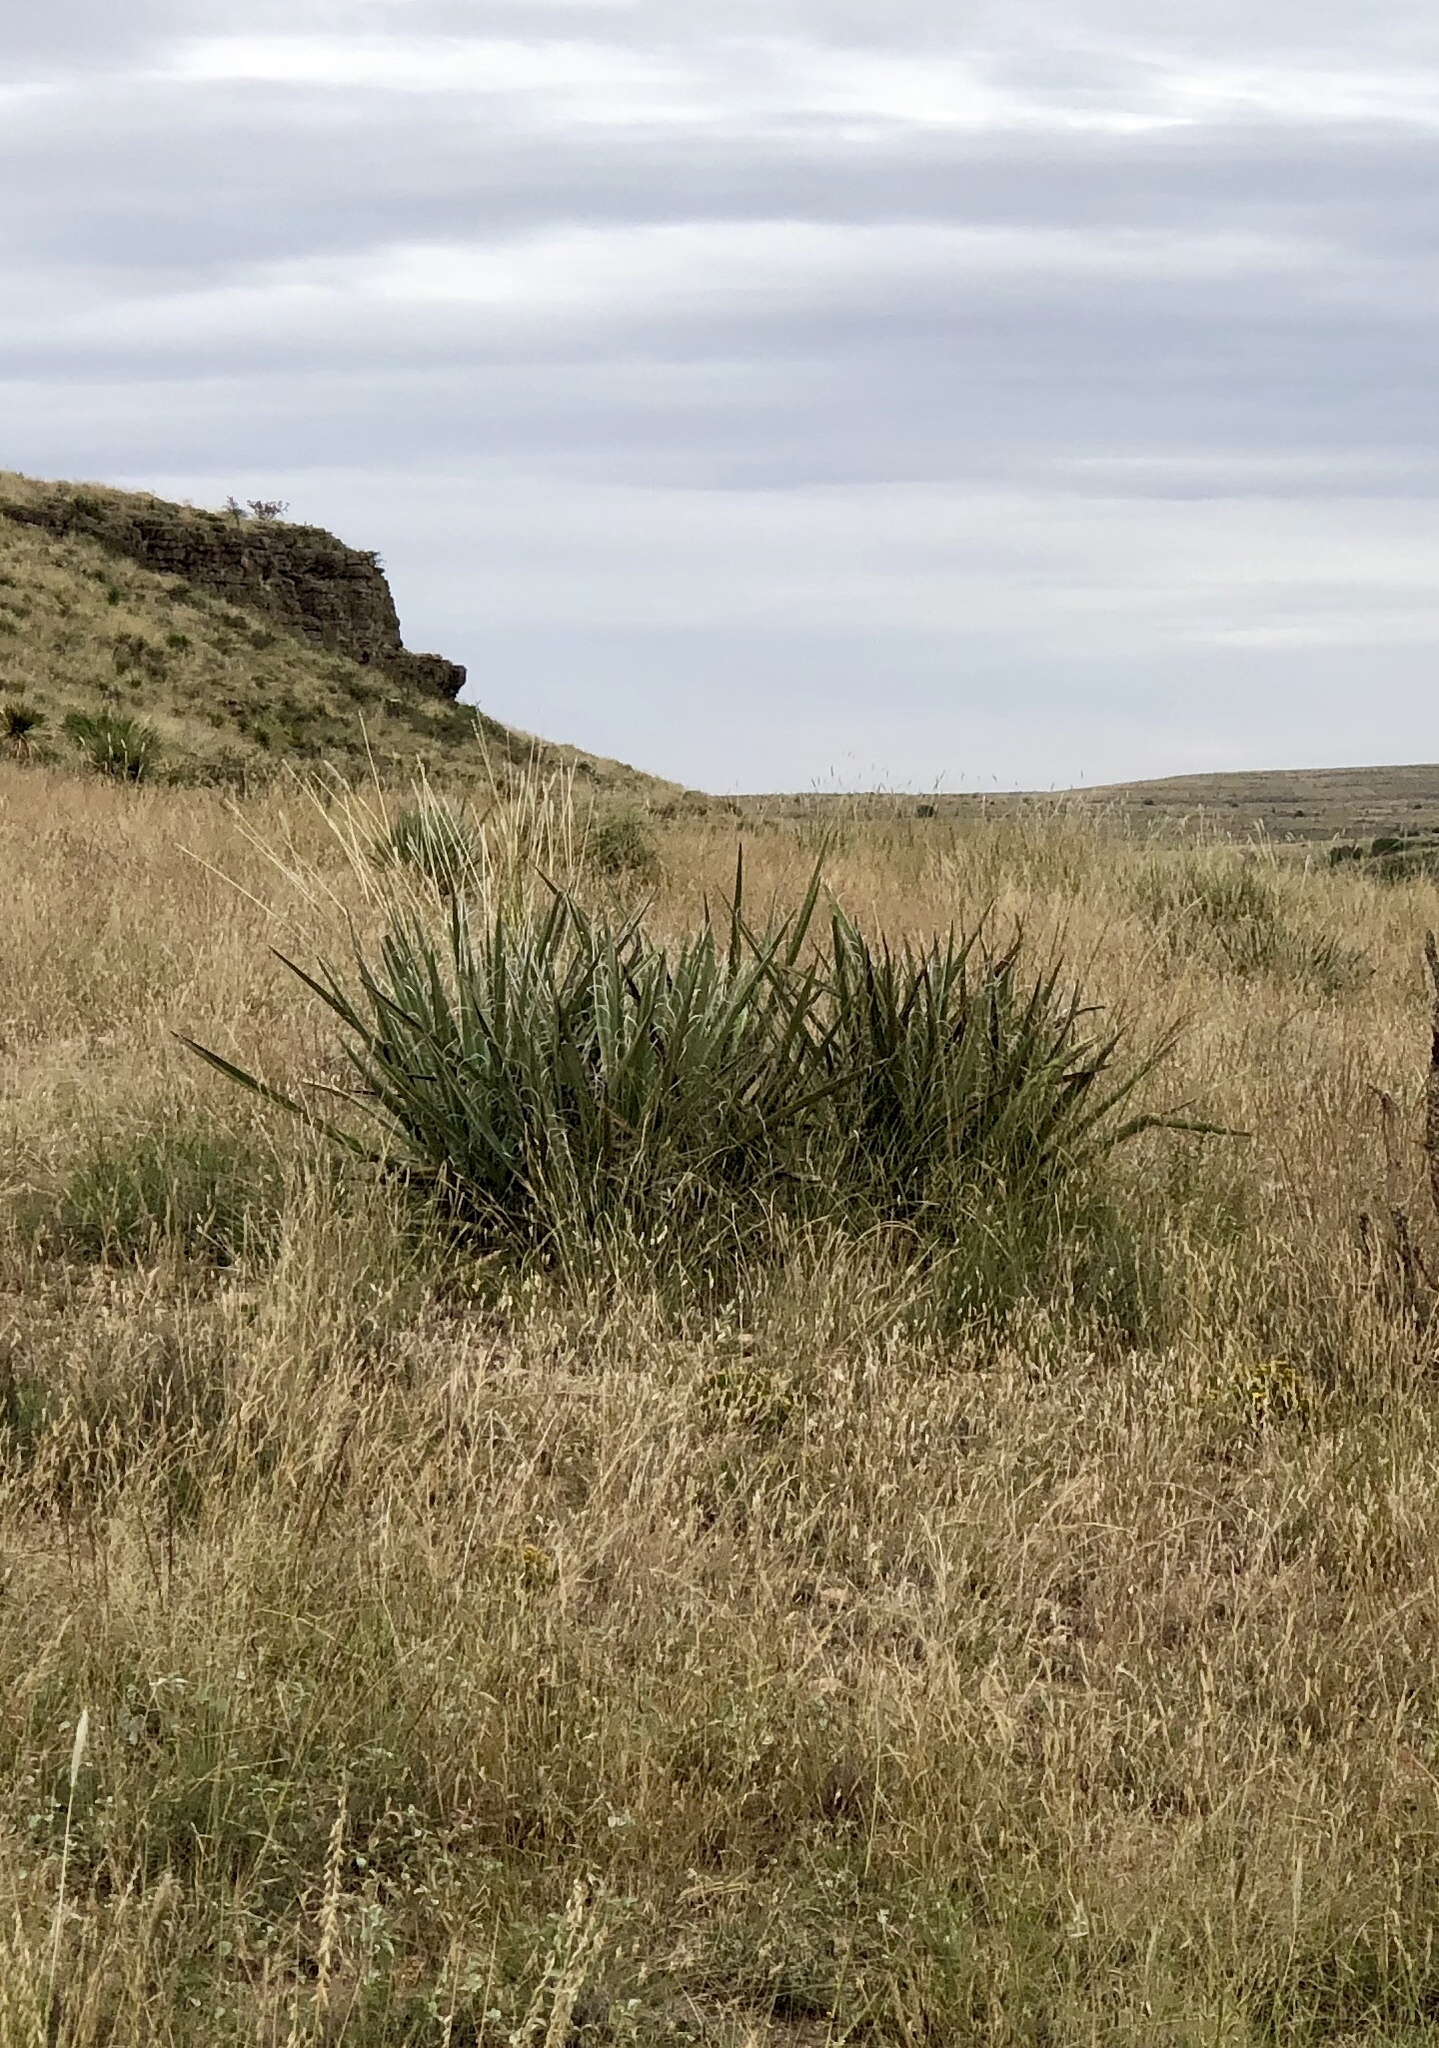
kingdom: Plantae
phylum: Tracheophyta
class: Liliopsida
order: Asparagales
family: Asparagaceae
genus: Yucca
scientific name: Yucca baccata
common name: Banana yucca
